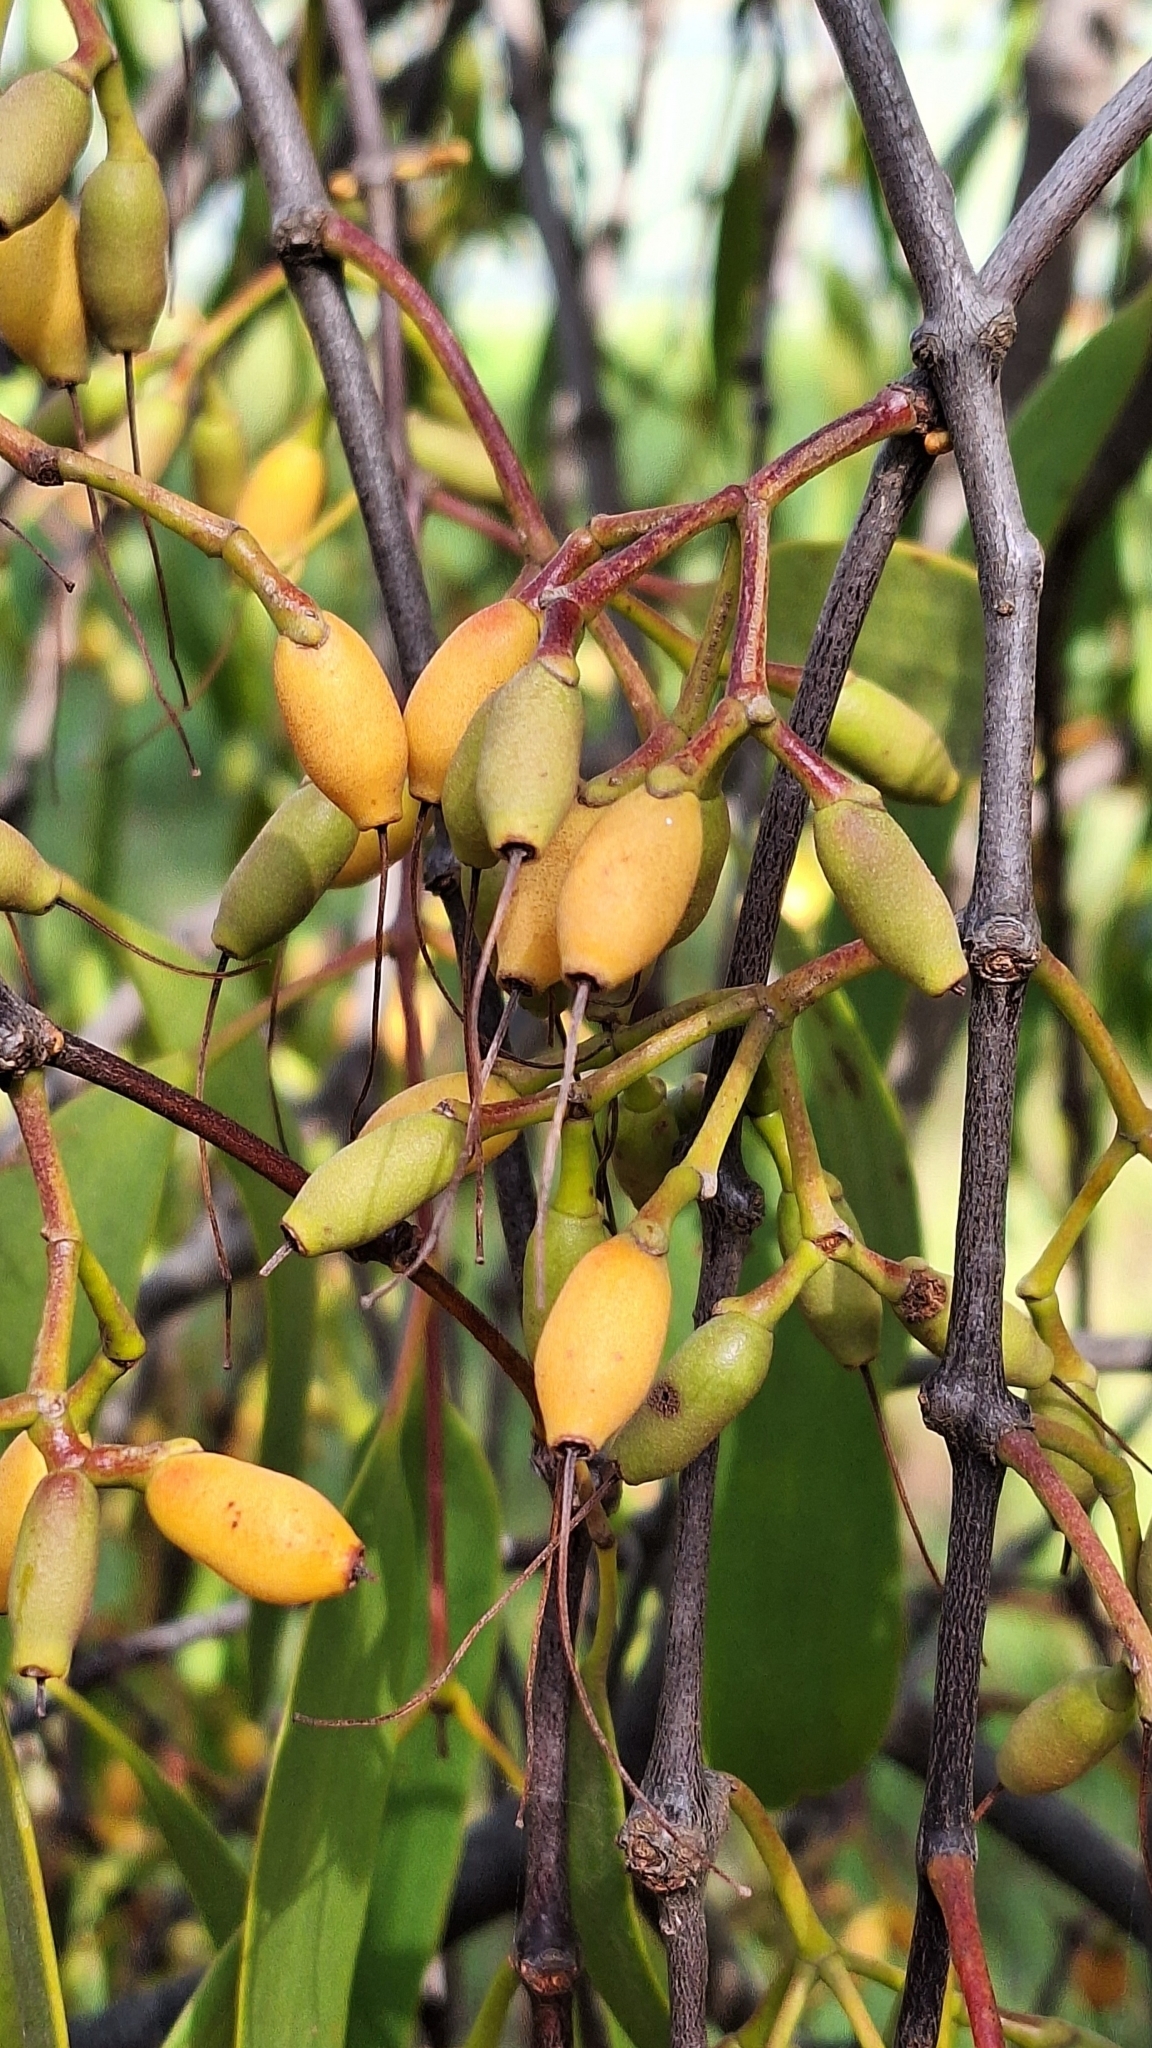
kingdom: Plantae
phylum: Tracheophyta
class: Magnoliopsida
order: Santalales
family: Loranthaceae
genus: Amyema
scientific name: Amyema miquelii
